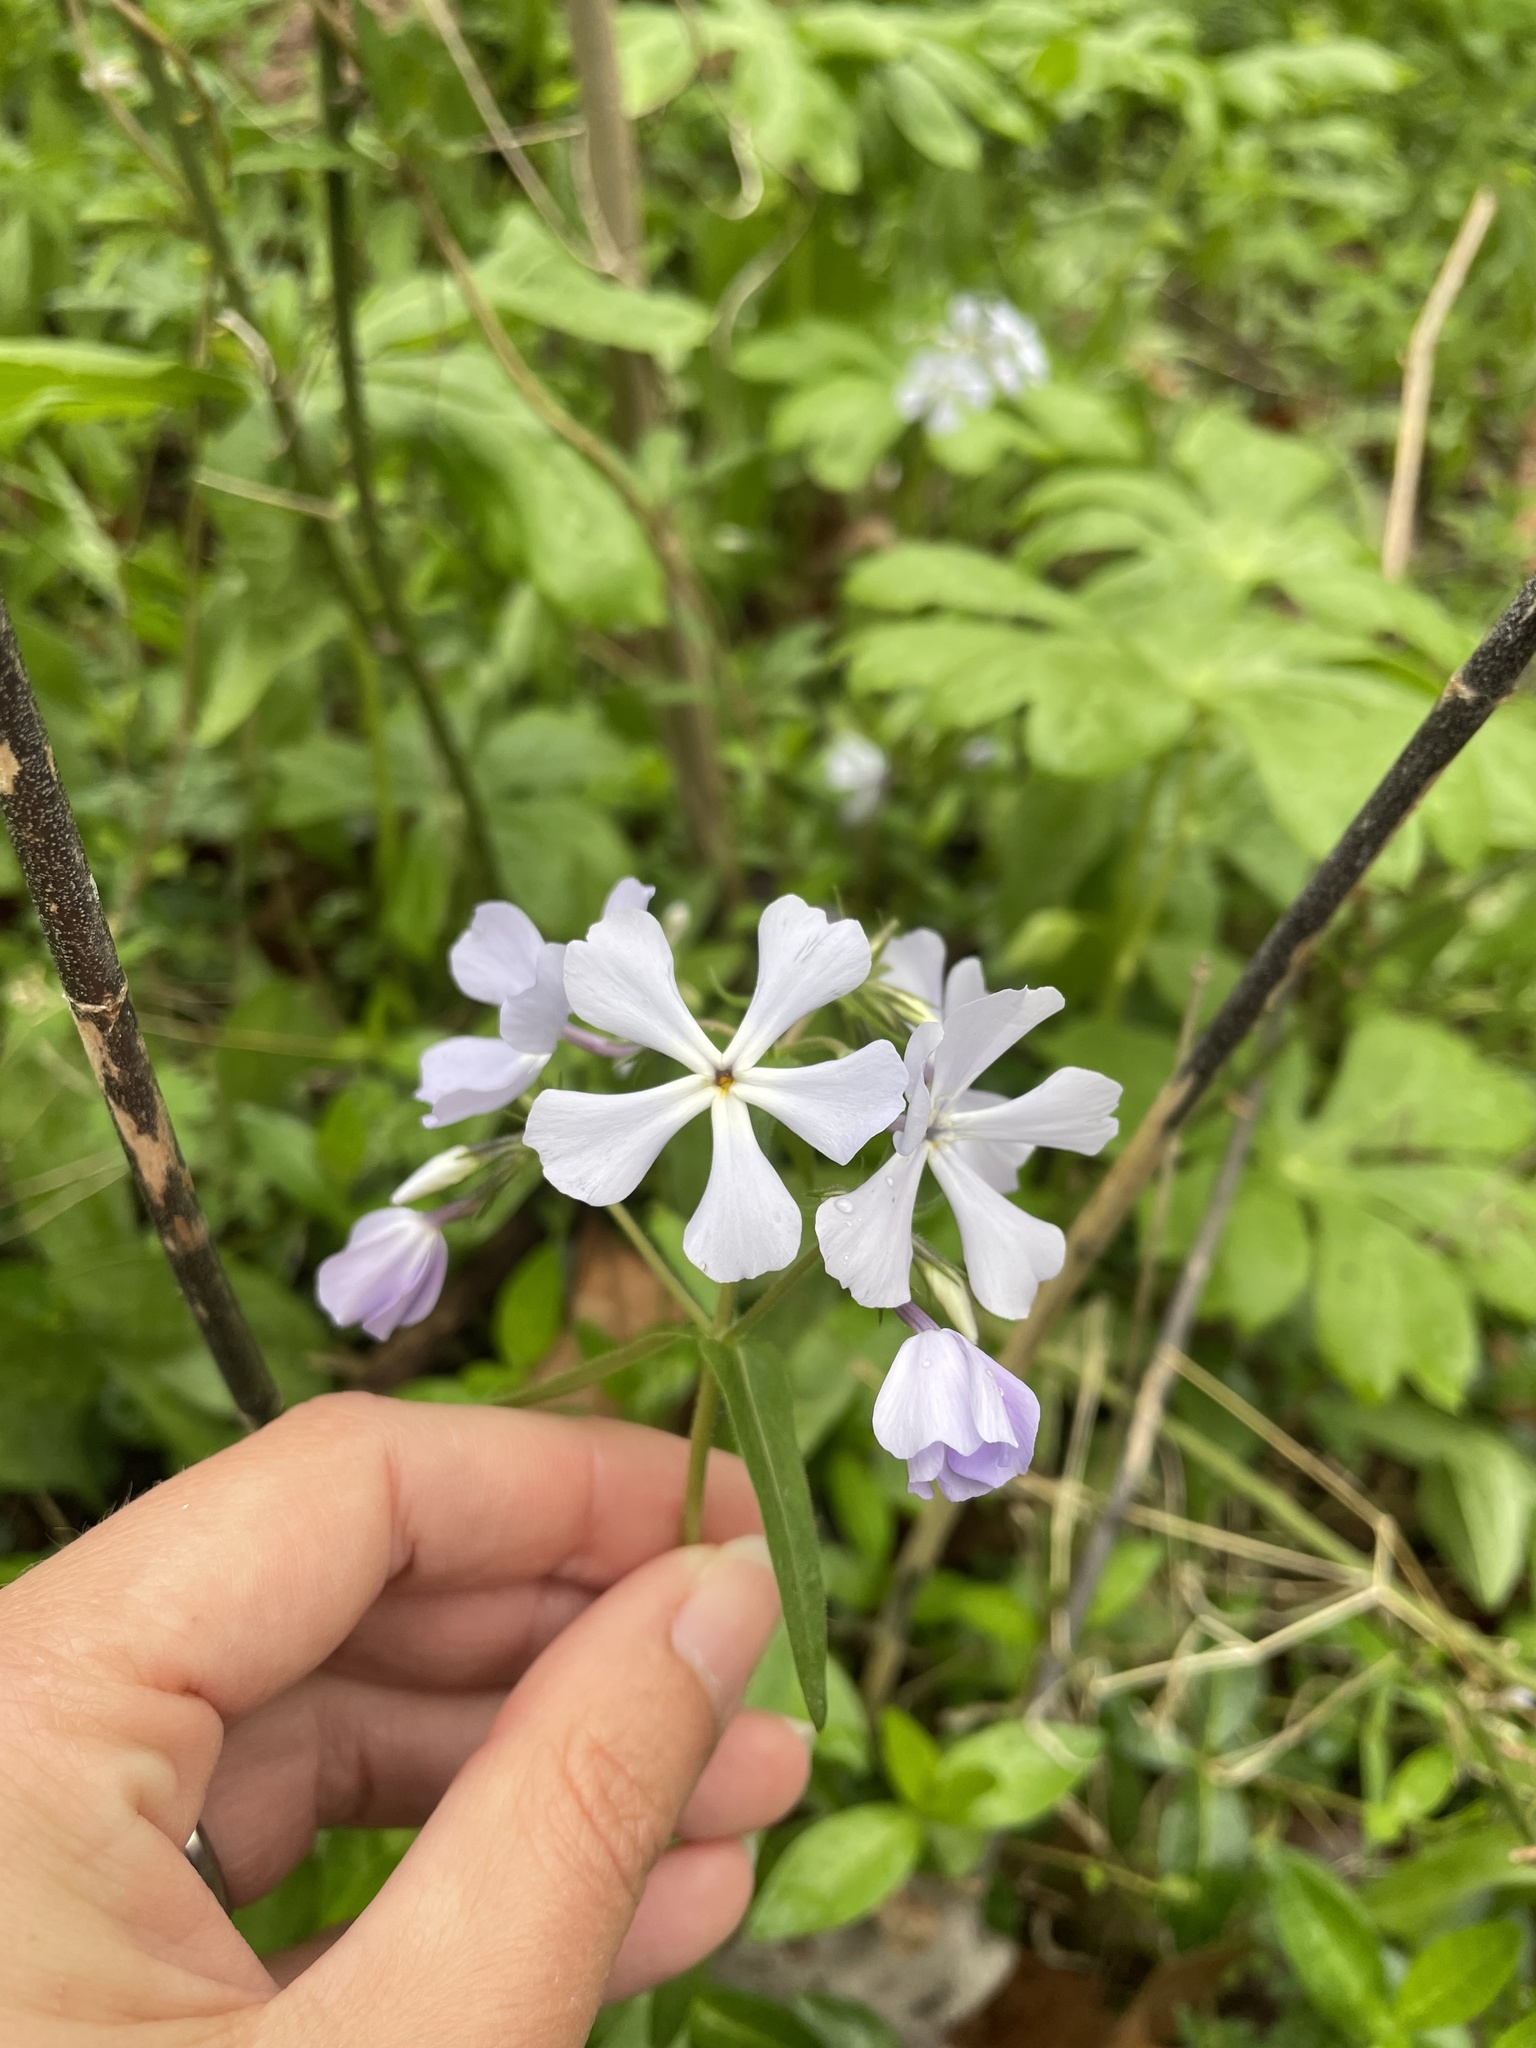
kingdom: Plantae
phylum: Tracheophyta
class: Magnoliopsida
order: Ericales
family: Polemoniaceae
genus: Phlox
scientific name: Phlox divaricata
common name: Blue phlox
